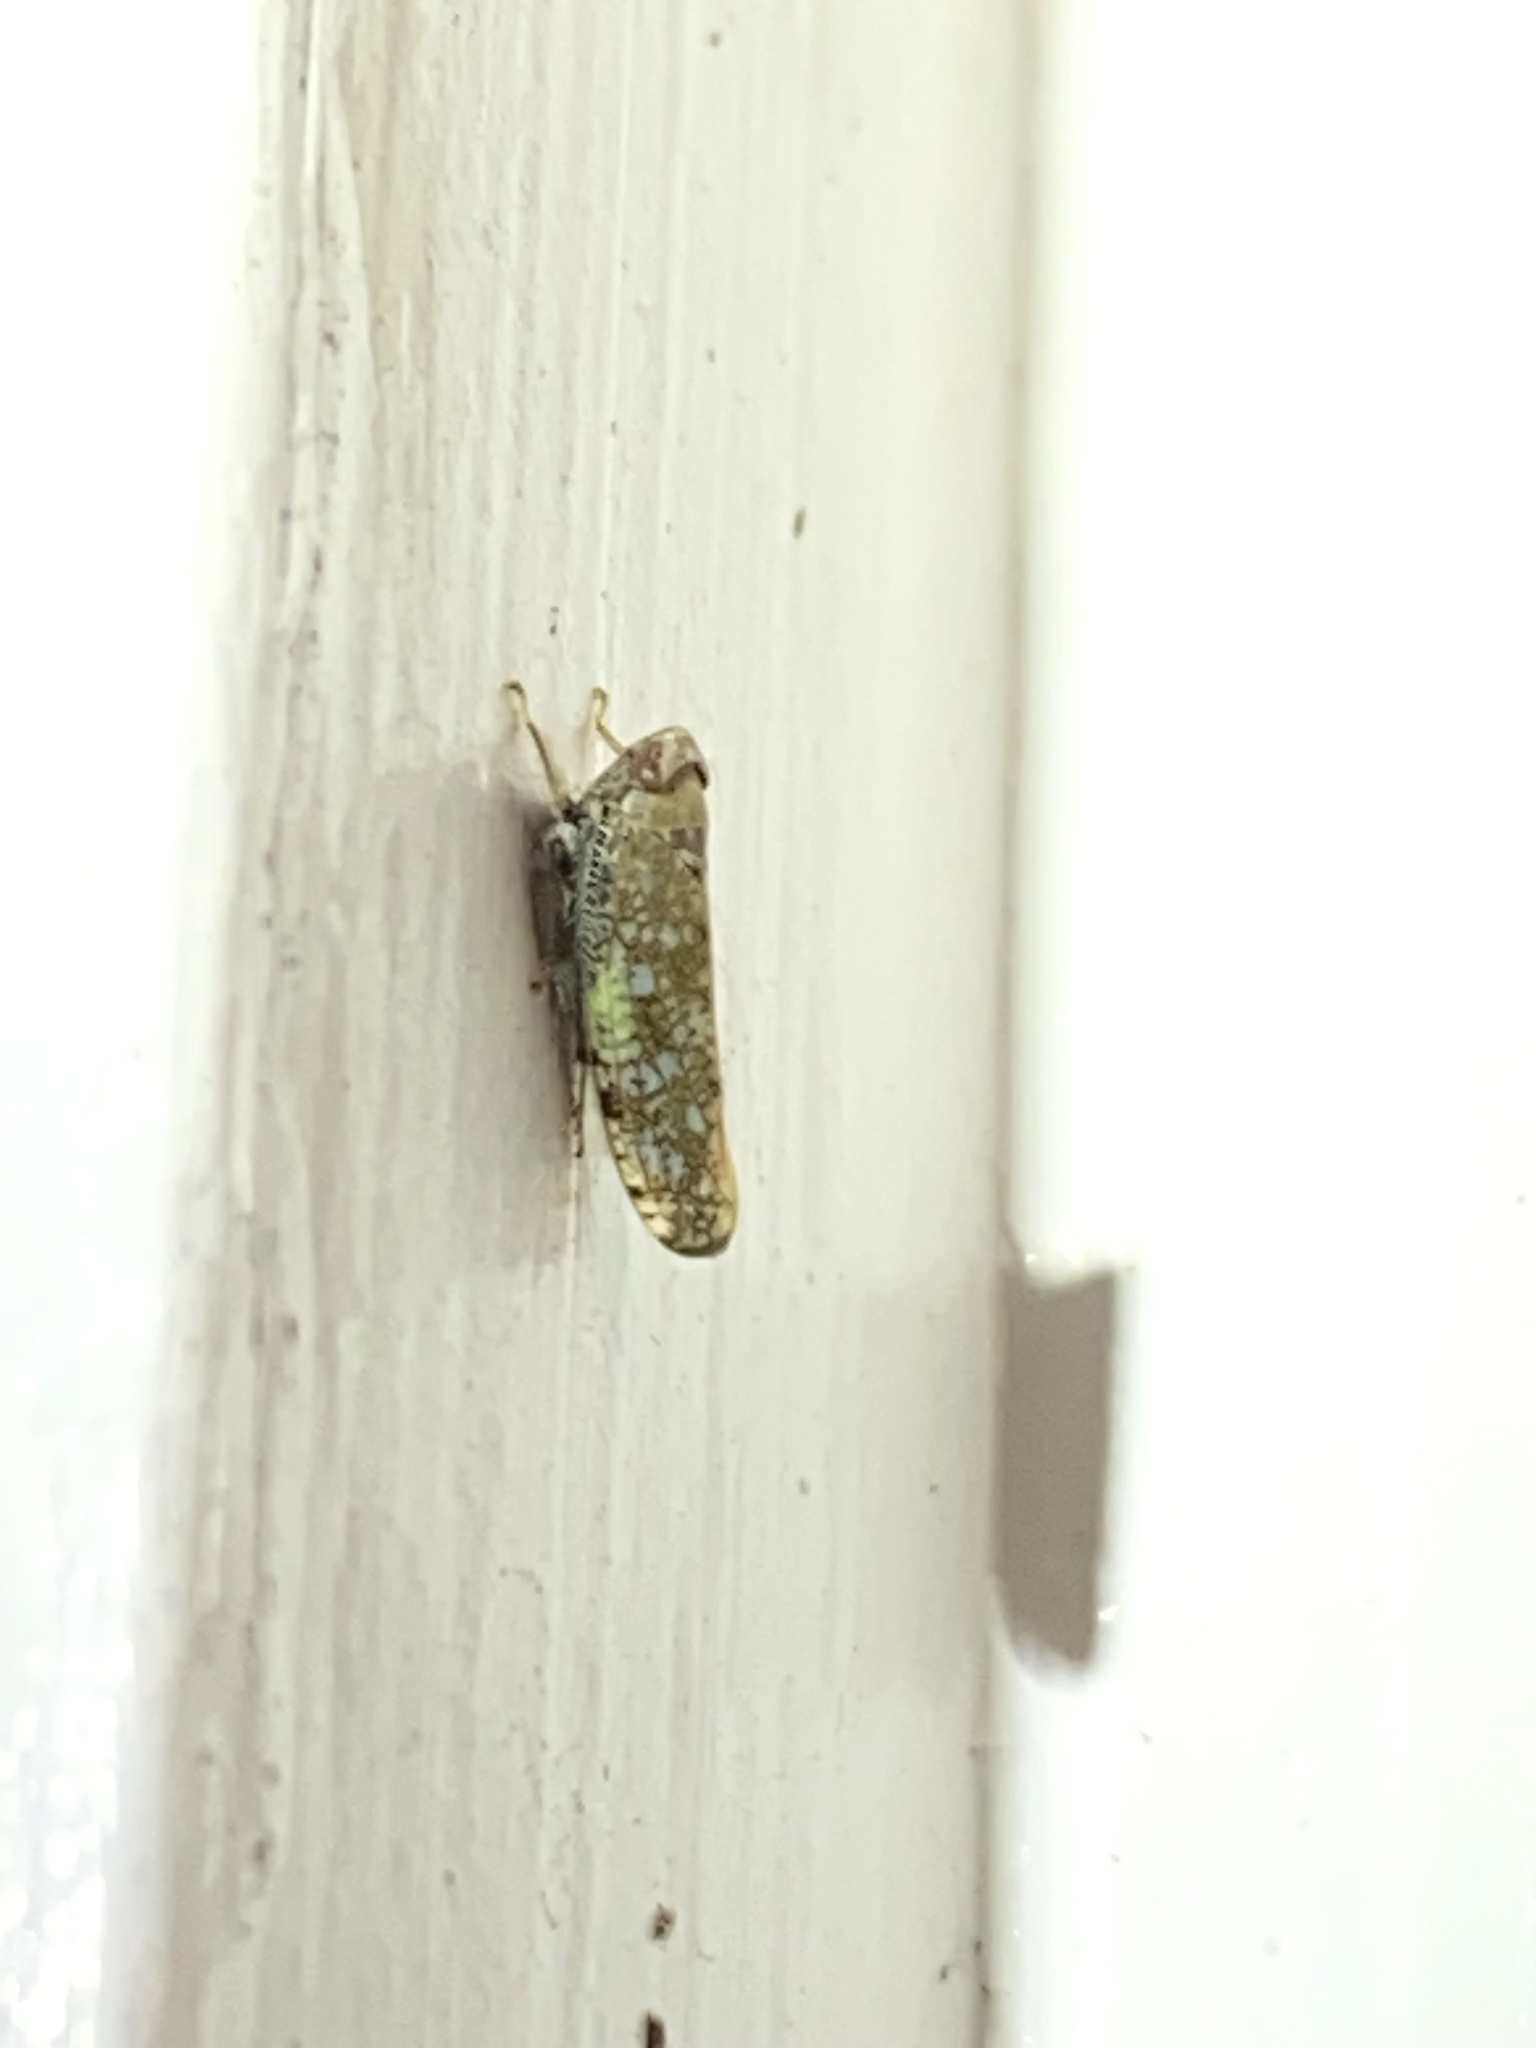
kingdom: Animalia
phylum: Arthropoda
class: Insecta
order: Hemiptera
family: Cicadellidae
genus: Orientus
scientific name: Orientus ishidae
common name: Japanese leafhopper
